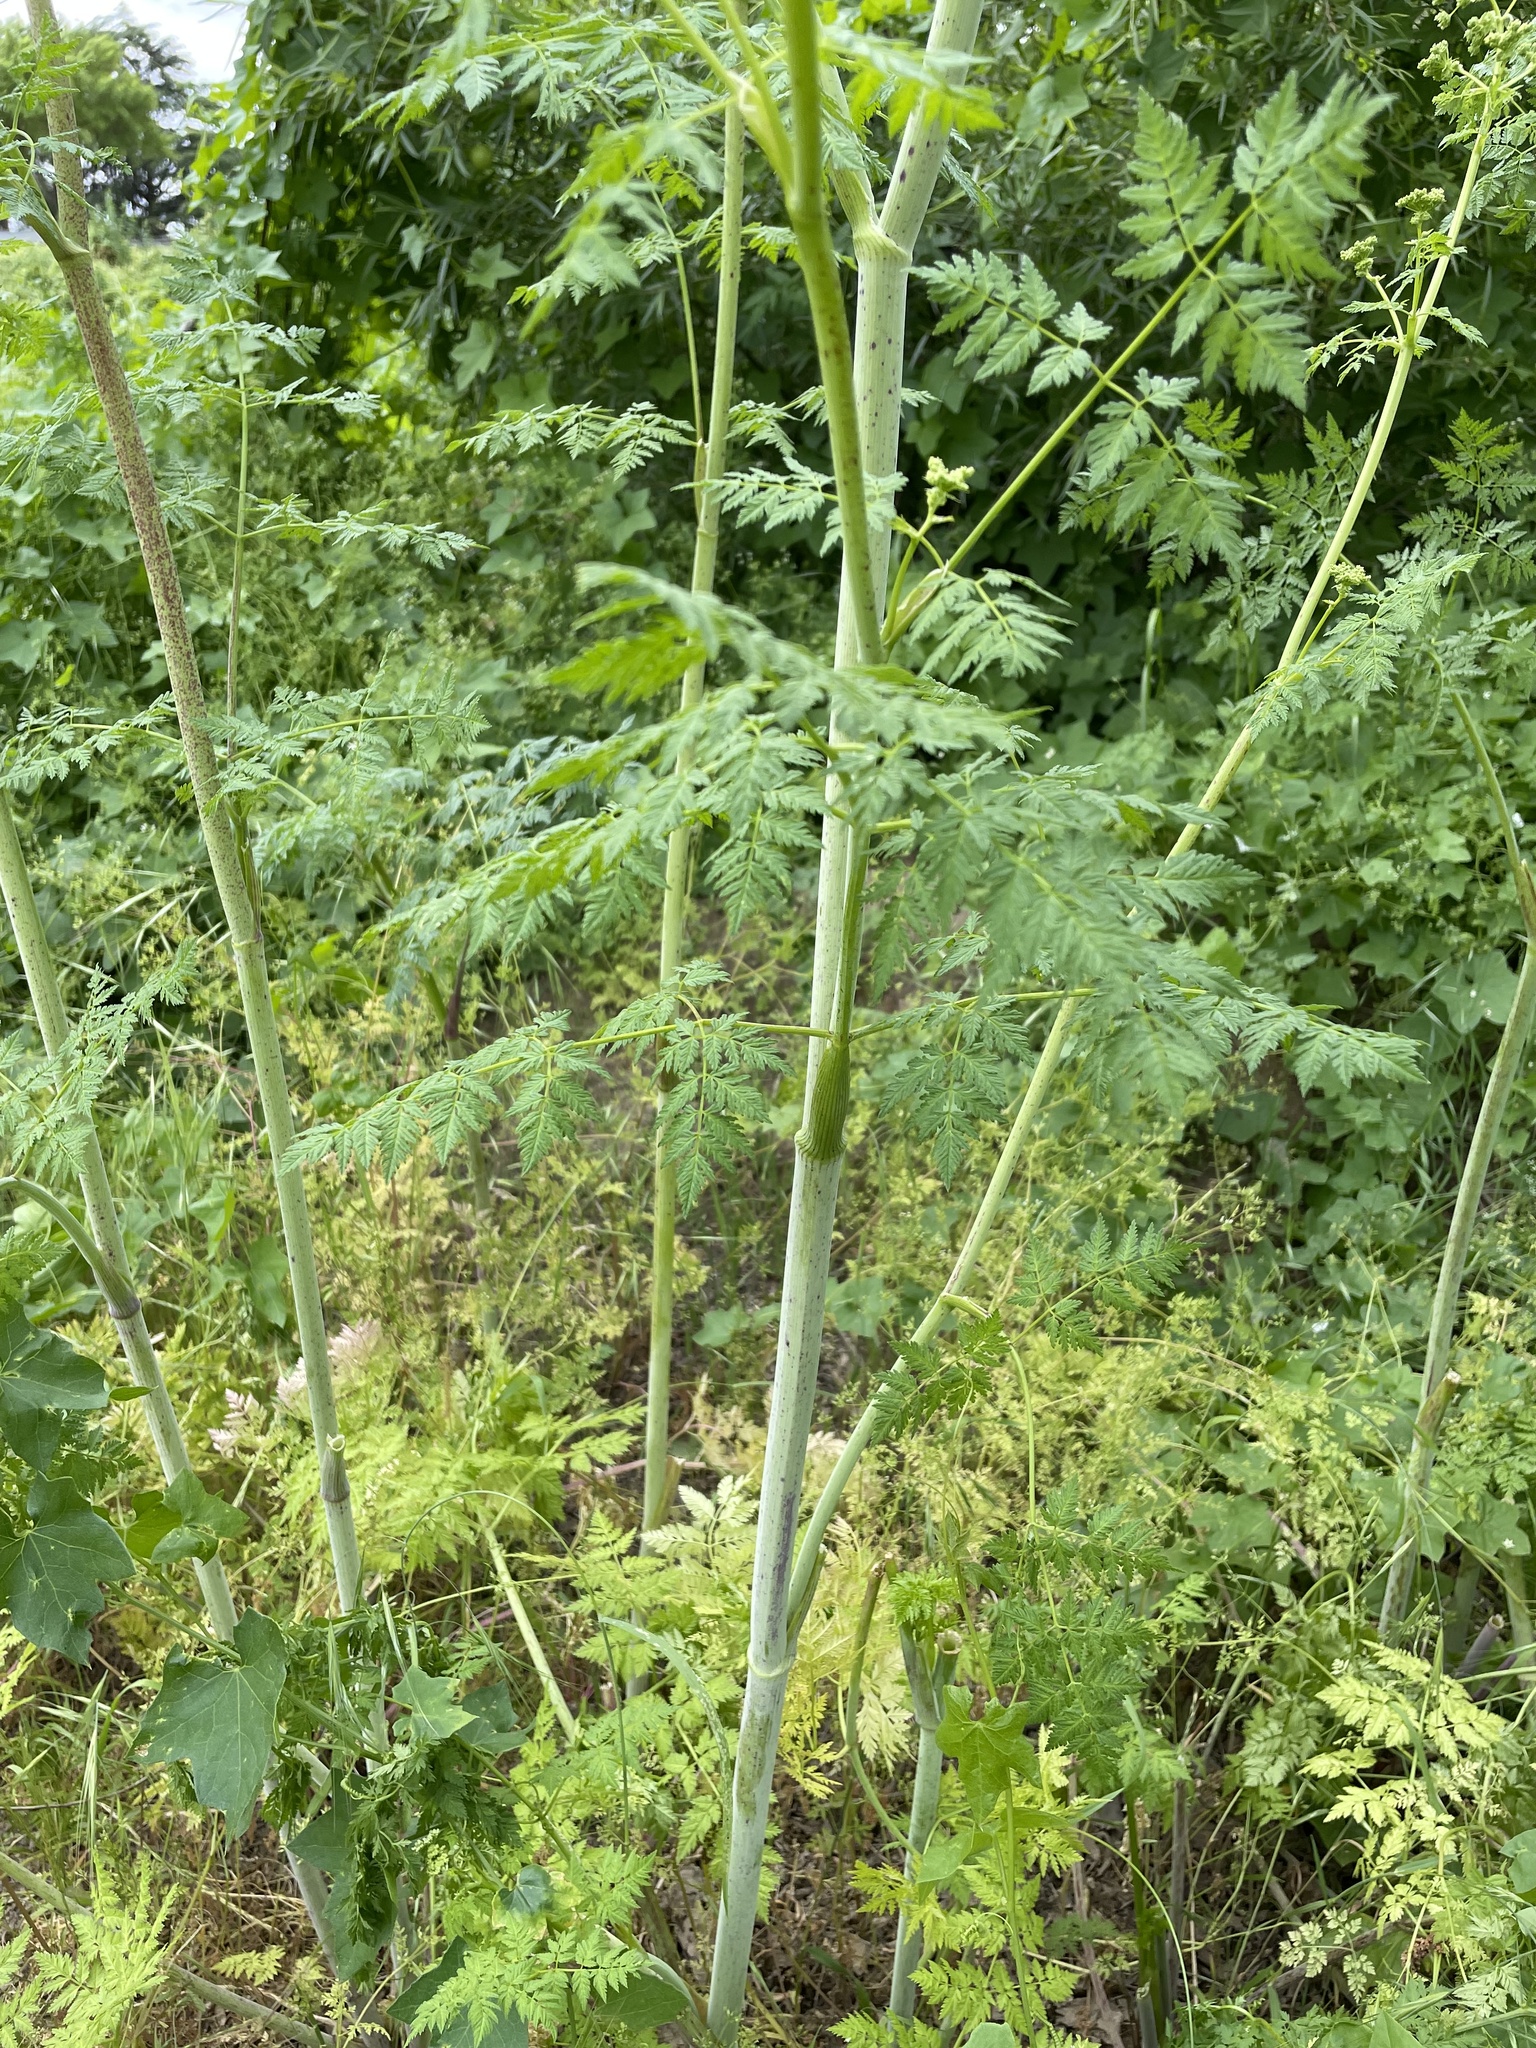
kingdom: Plantae
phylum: Tracheophyta
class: Magnoliopsida
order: Apiales
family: Apiaceae
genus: Conium
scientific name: Conium maculatum
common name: Hemlock
